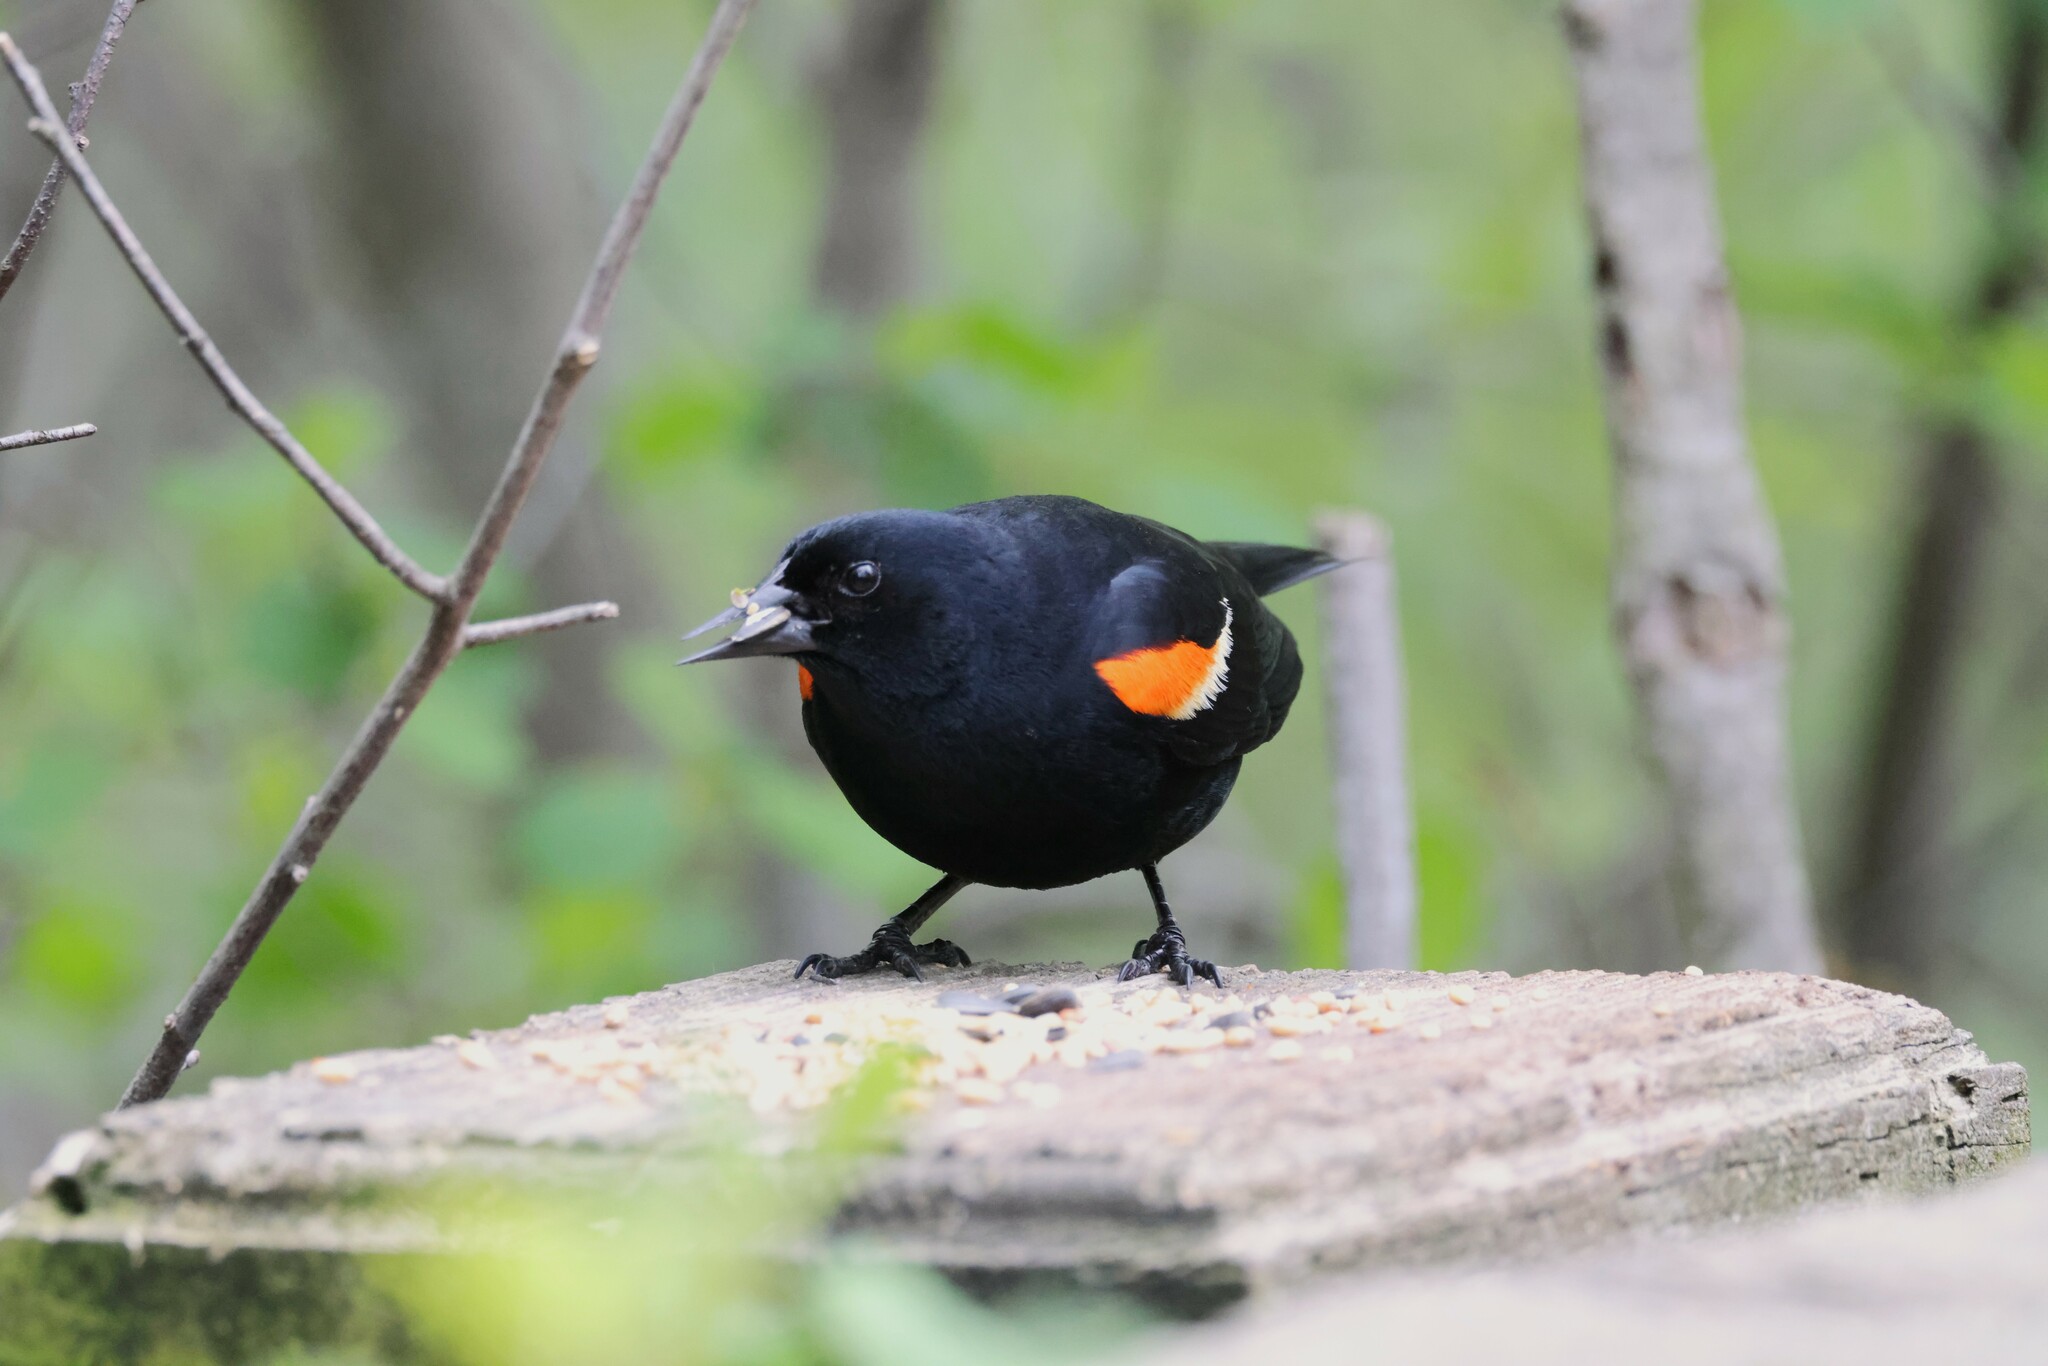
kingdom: Animalia
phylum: Chordata
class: Aves
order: Passeriformes
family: Icteridae
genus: Agelaius
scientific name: Agelaius phoeniceus
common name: Red-winged blackbird
